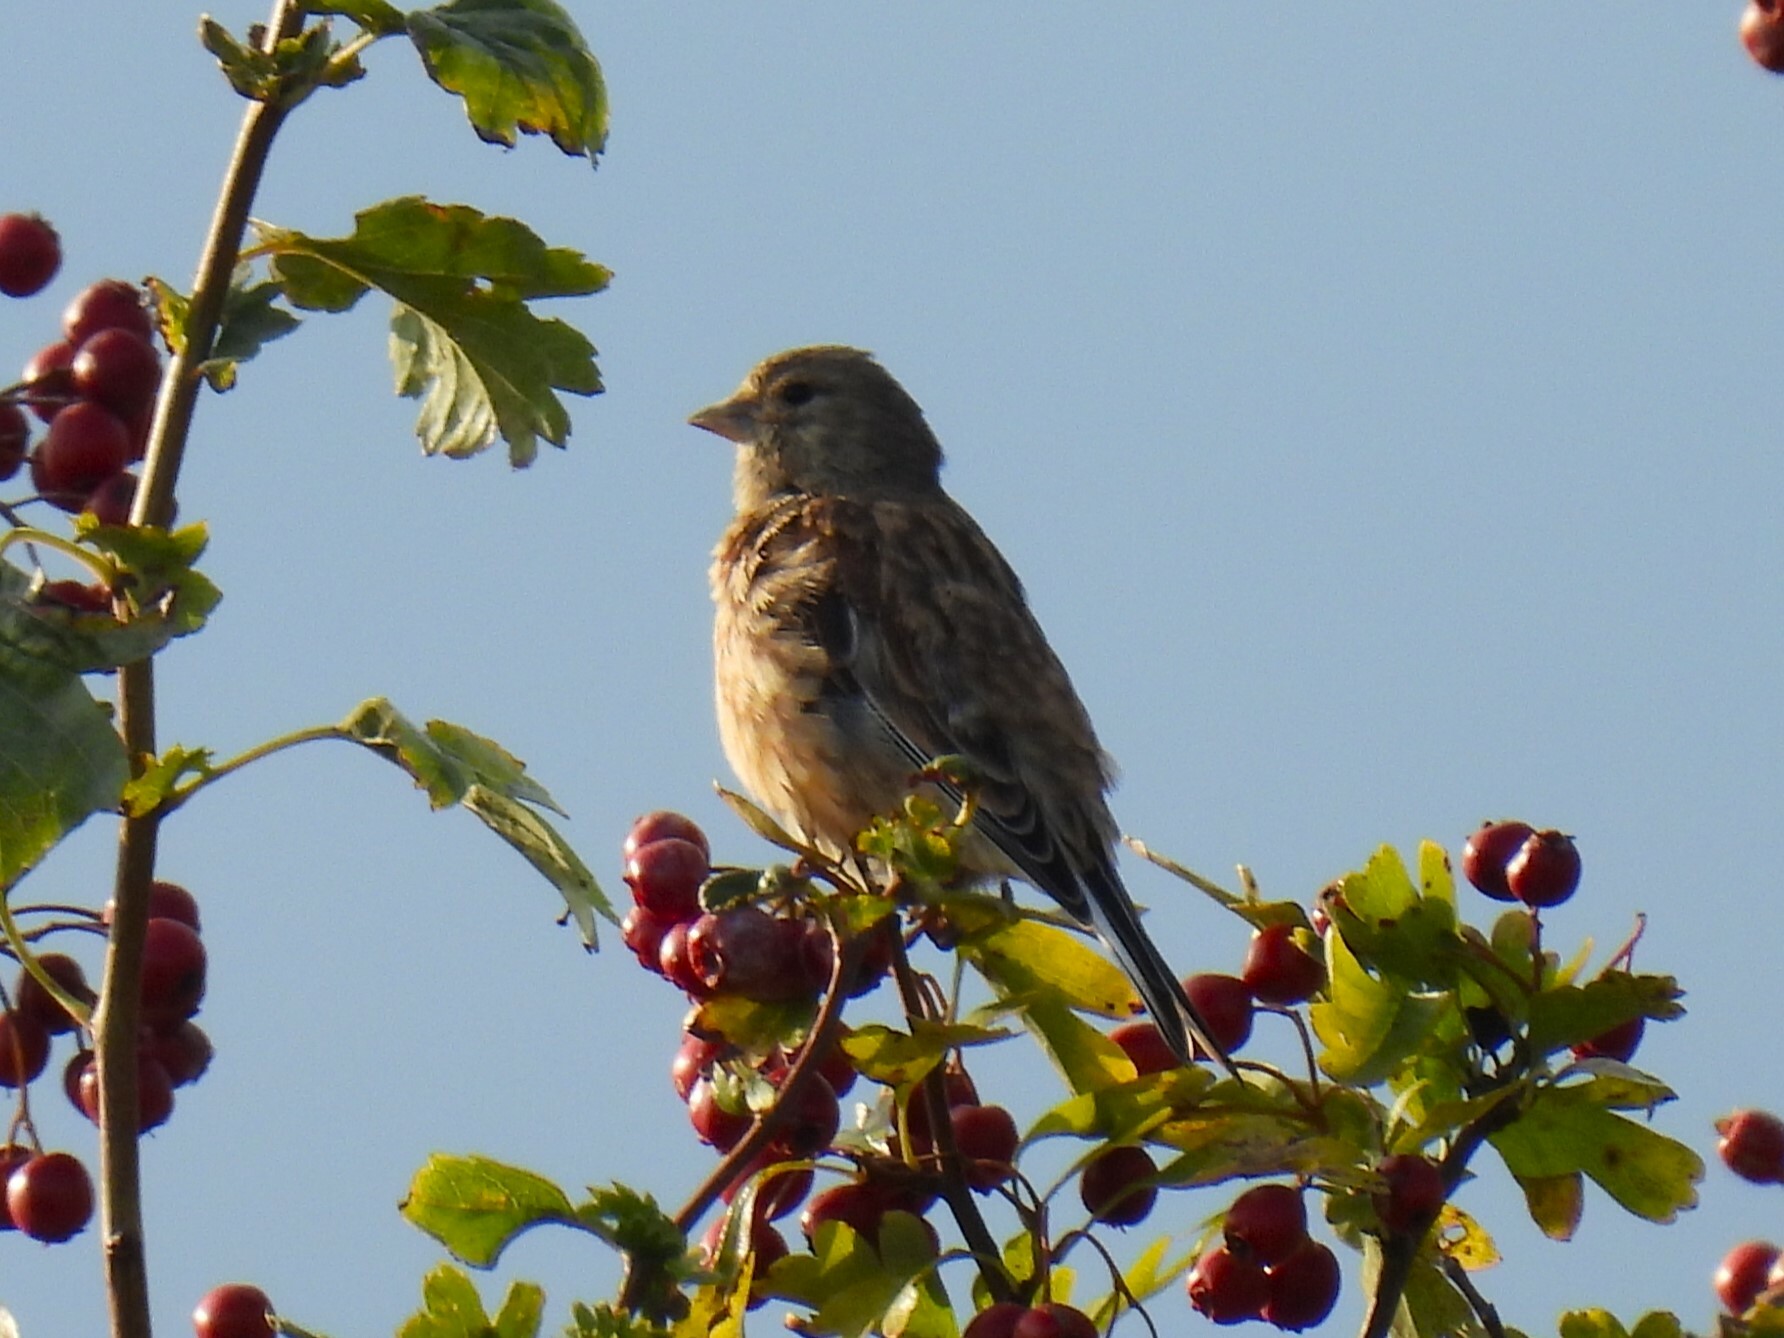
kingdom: Animalia
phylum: Chordata
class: Aves
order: Passeriformes
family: Fringillidae
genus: Linaria
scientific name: Linaria cannabina
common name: Common linnet
